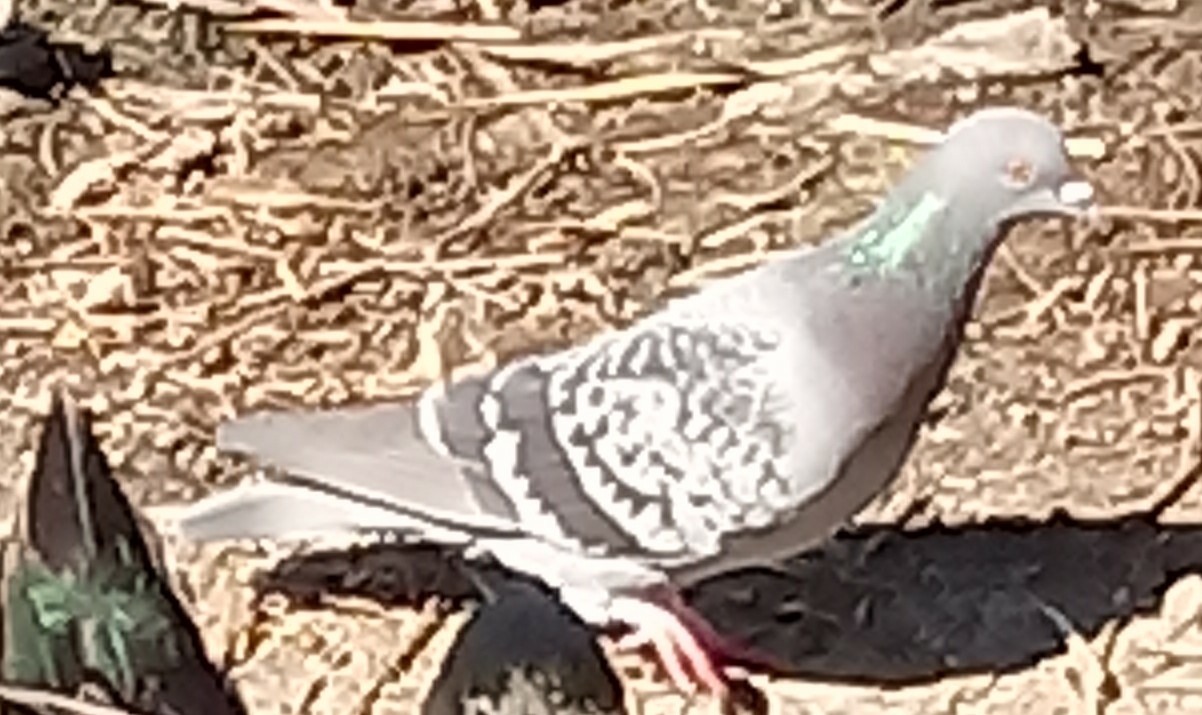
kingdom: Animalia
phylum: Chordata
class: Aves
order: Columbiformes
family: Columbidae
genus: Columba
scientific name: Columba livia
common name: Rock pigeon
